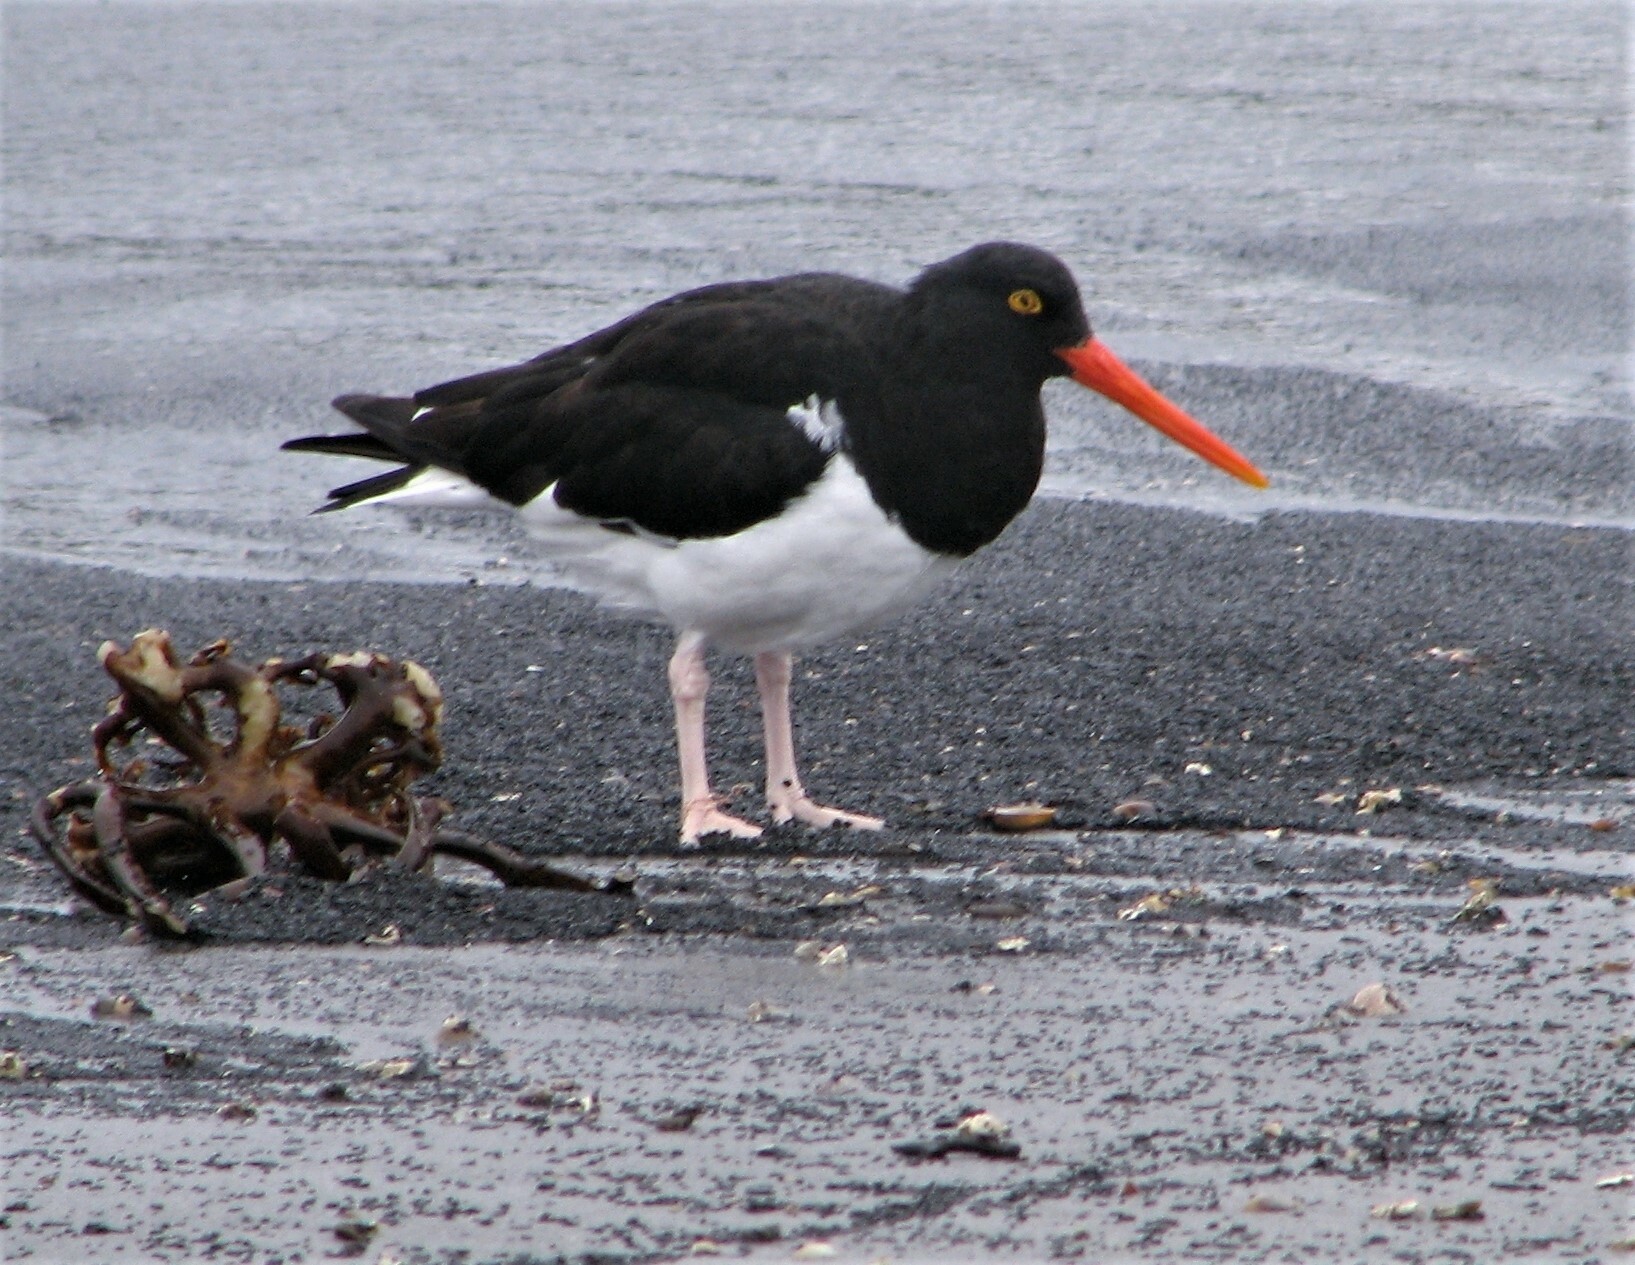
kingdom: Animalia
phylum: Chordata
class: Aves
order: Charadriiformes
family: Haematopodidae
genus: Haematopus
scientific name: Haematopus leucopodus
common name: Magellanic oystercatcher
